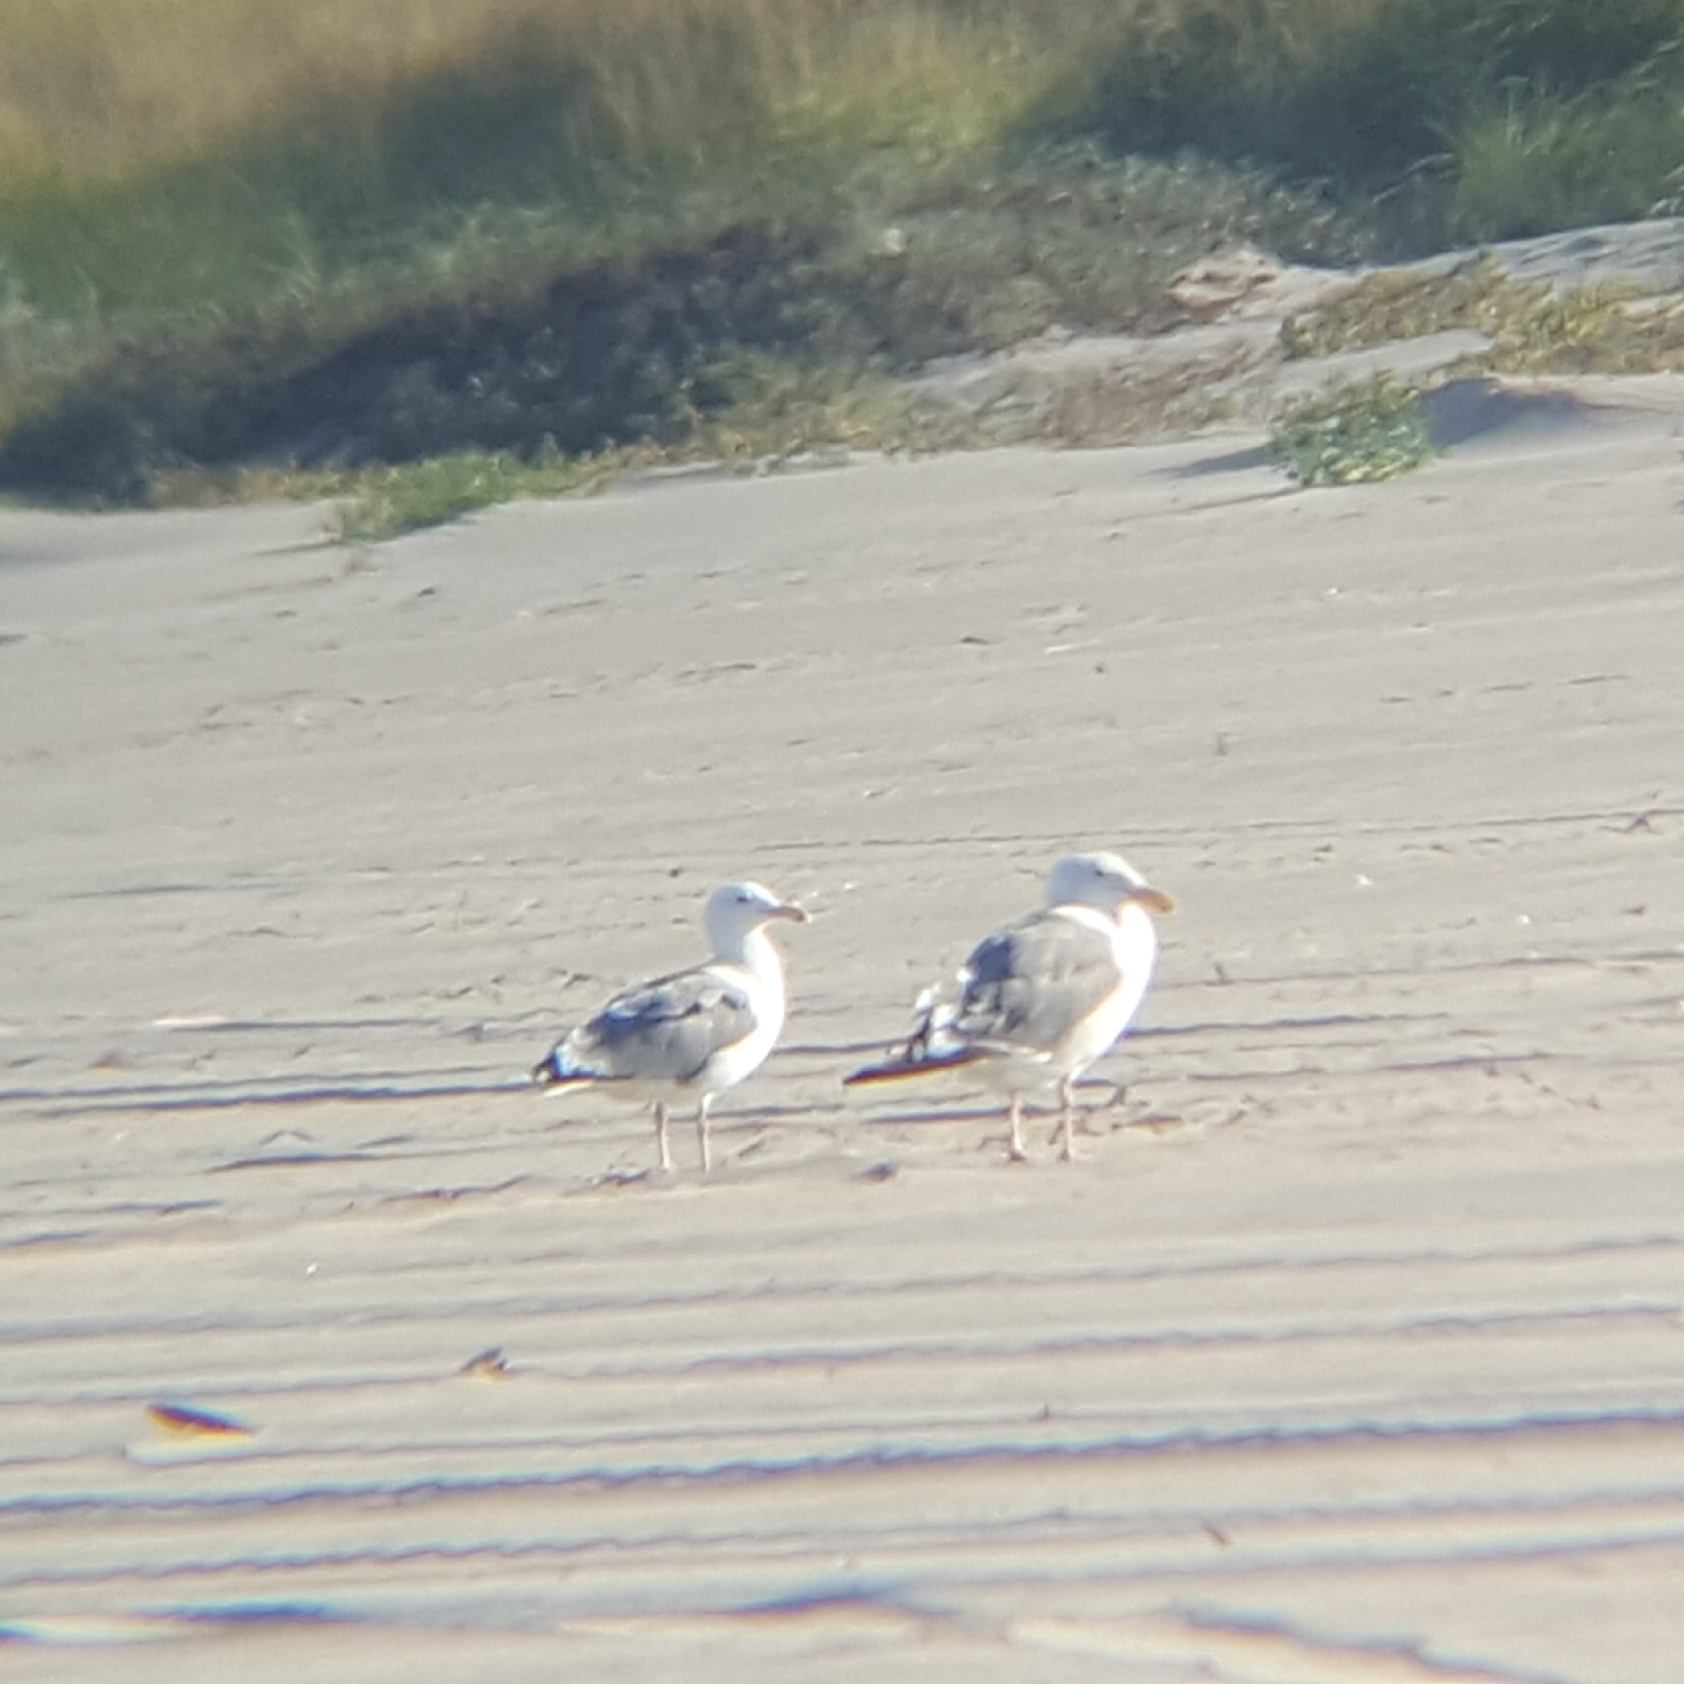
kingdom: Animalia
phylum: Chordata
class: Aves
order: Charadriiformes
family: Laridae
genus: Larus
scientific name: Larus
